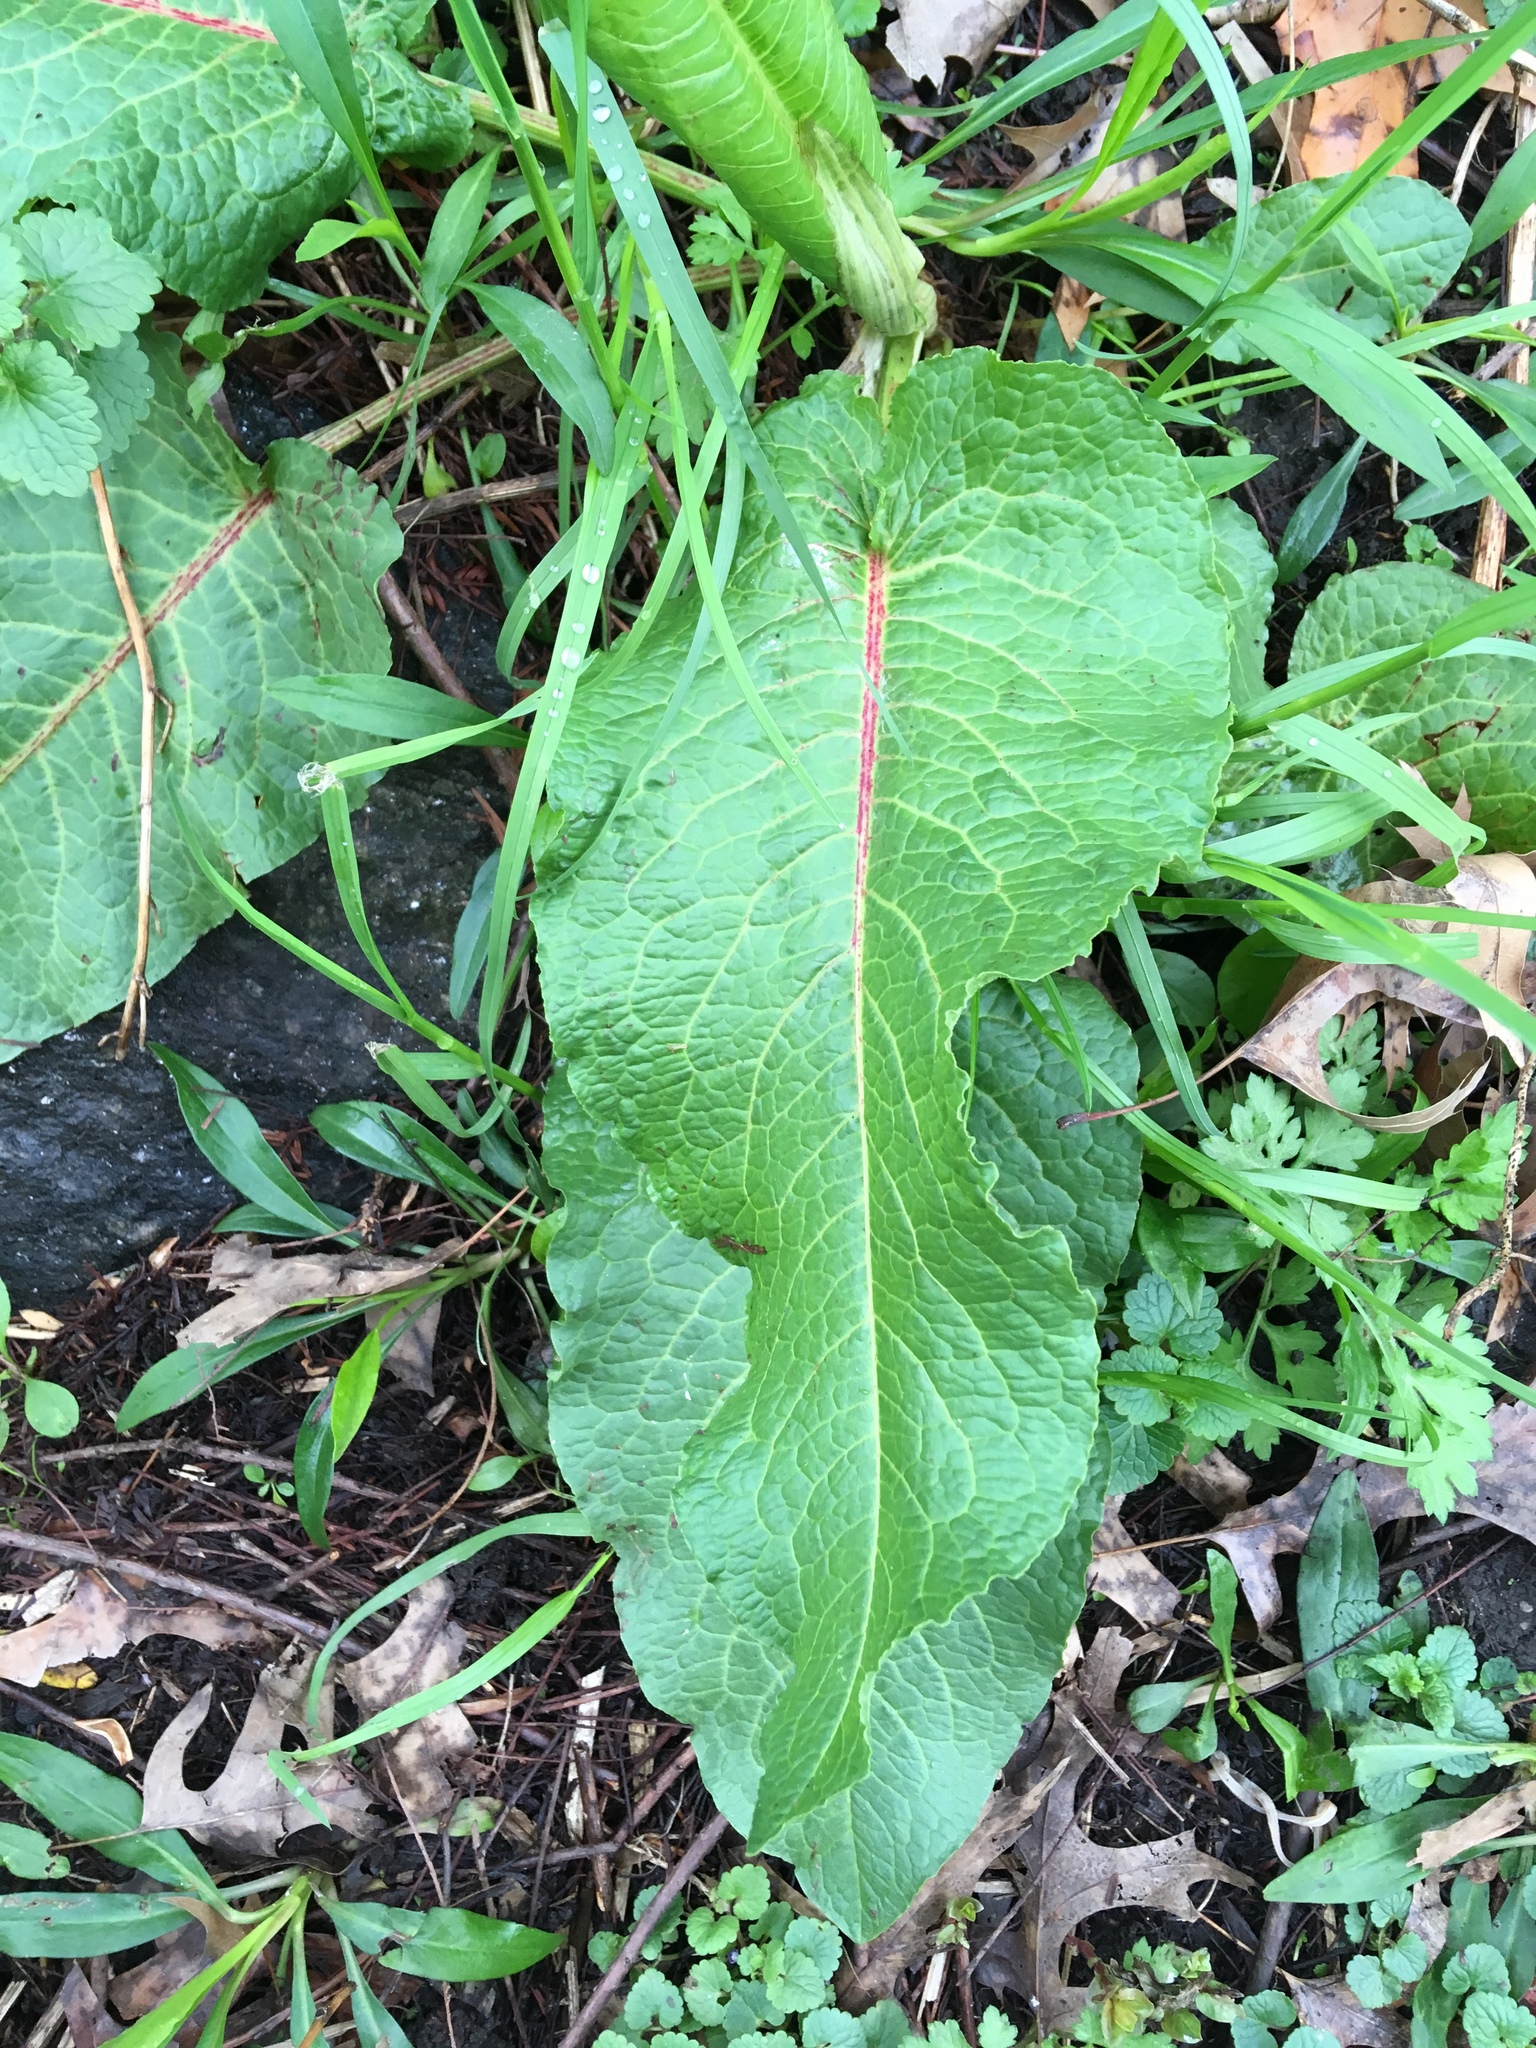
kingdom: Plantae
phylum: Tracheophyta
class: Magnoliopsida
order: Caryophyllales
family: Polygonaceae
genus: Rumex
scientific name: Rumex obtusifolius
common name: Bitter dock
